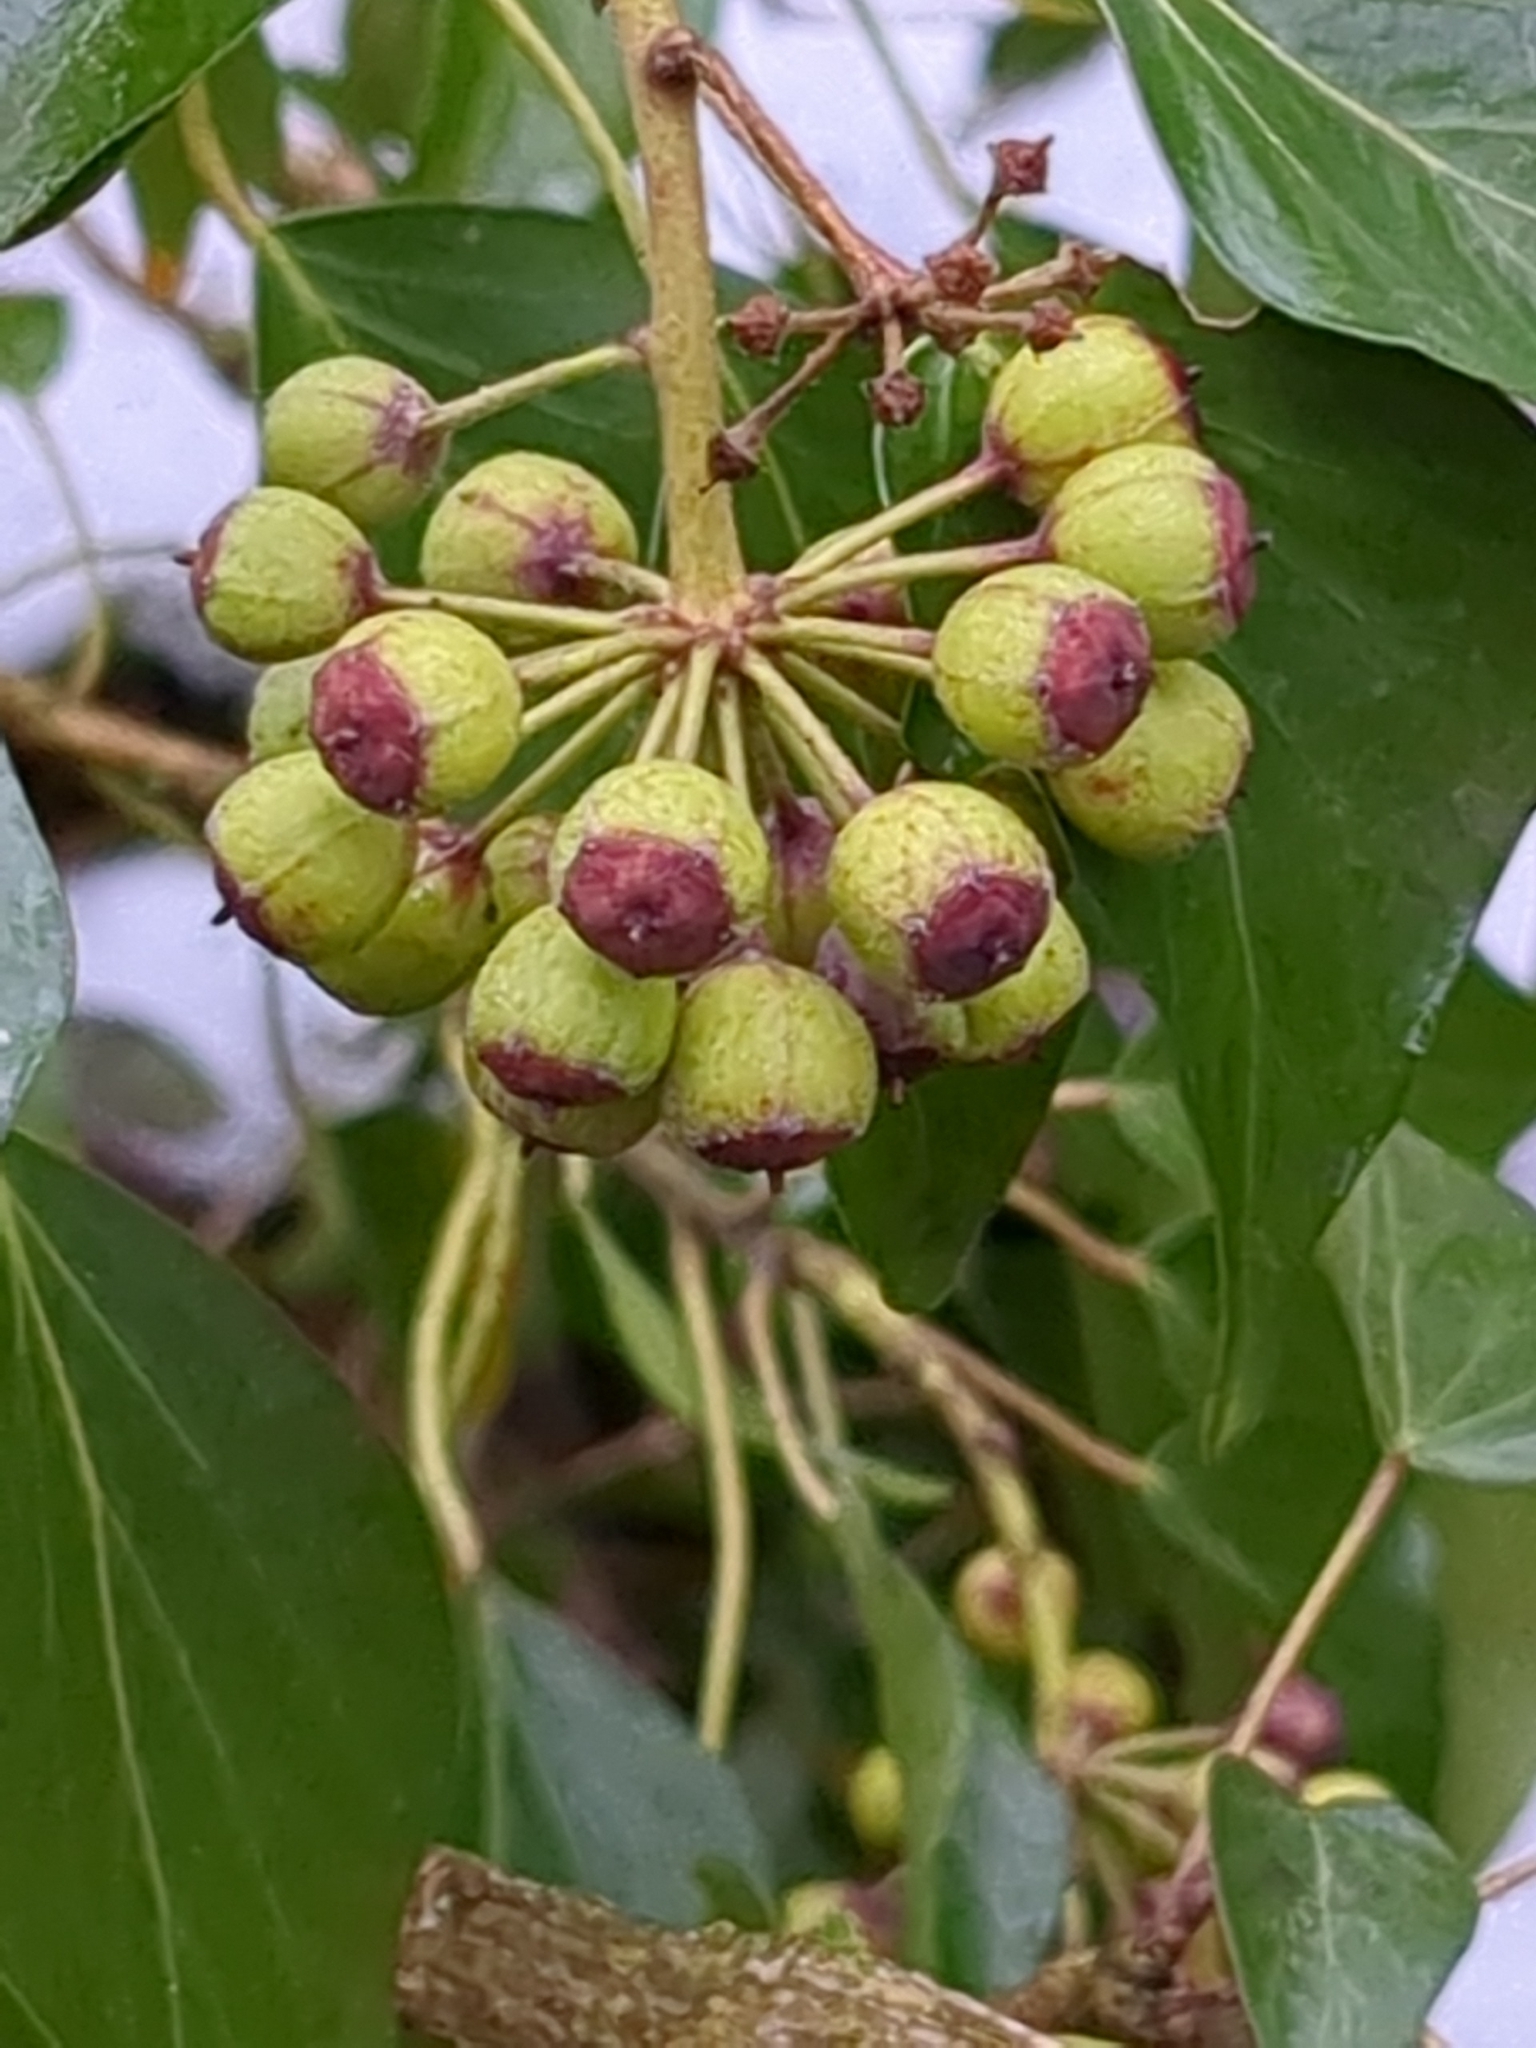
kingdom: Plantae
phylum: Tracheophyta
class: Magnoliopsida
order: Apiales
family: Araliaceae
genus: Hedera
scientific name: Hedera helix
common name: Ivy
